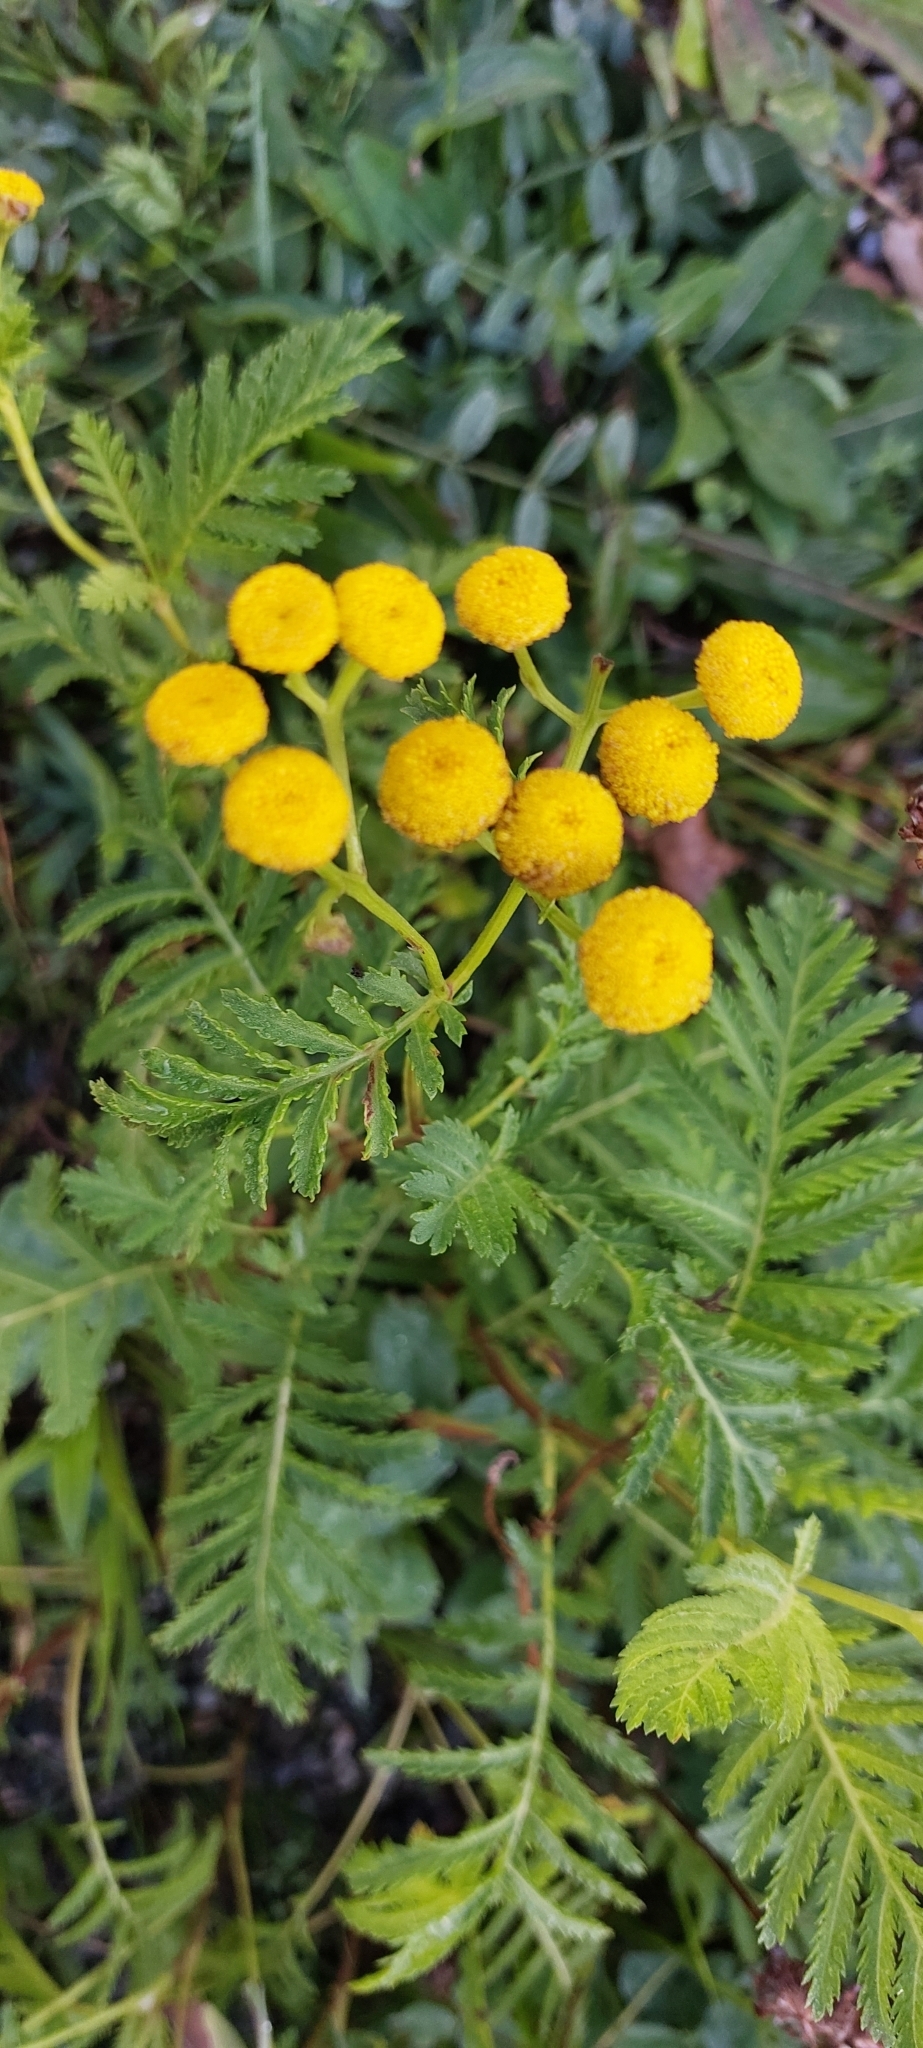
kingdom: Plantae
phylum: Tracheophyta
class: Magnoliopsida
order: Asterales
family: Asteraceae
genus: Tanacetum
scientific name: Tanacetum vulgare
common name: Common tansy
